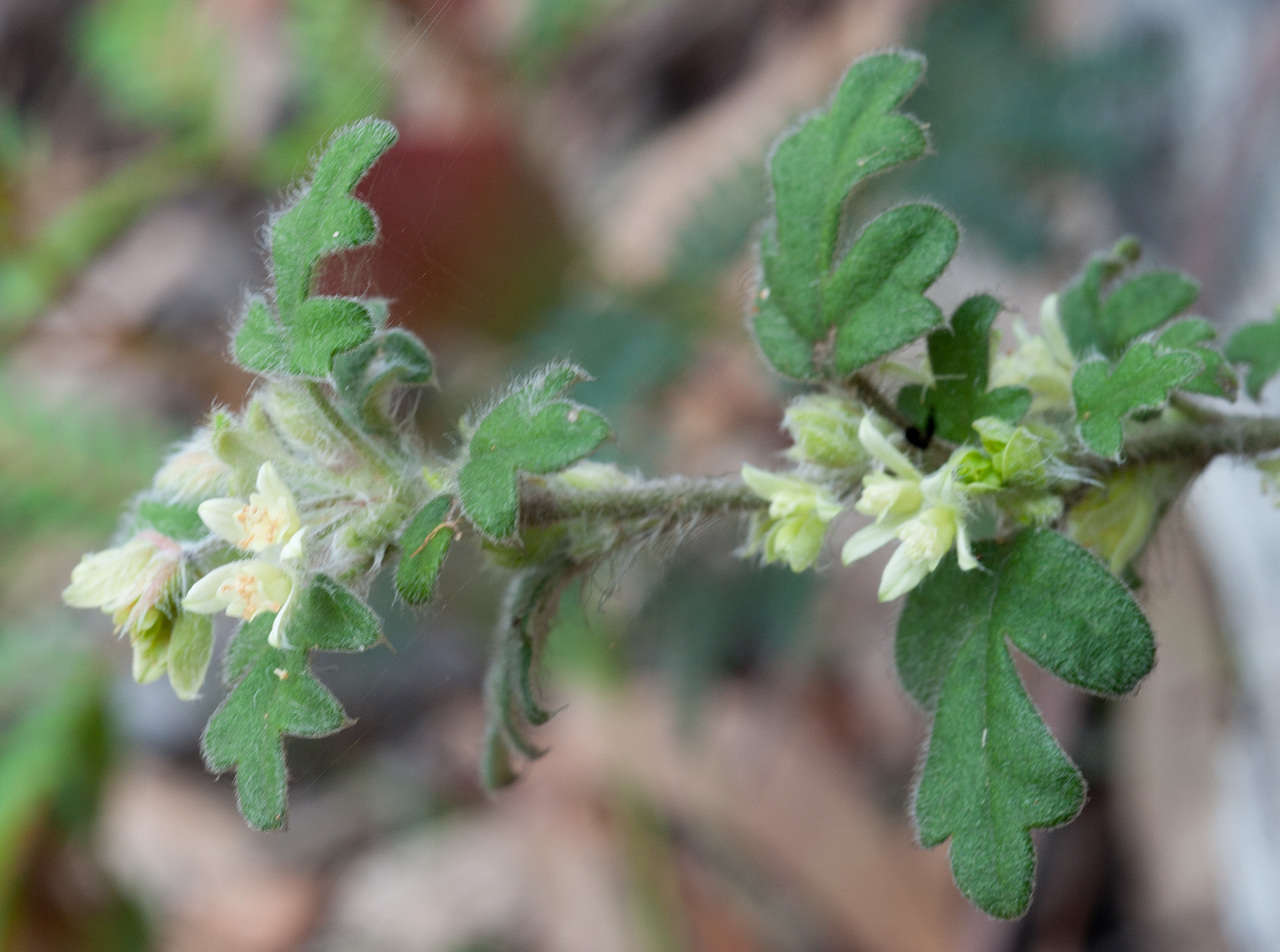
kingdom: Plantae
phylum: Tracheophyta
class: Magnoliopsida
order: Apiales
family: Apiaceae
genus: Xanthosia
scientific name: Xanthosia pilosa
